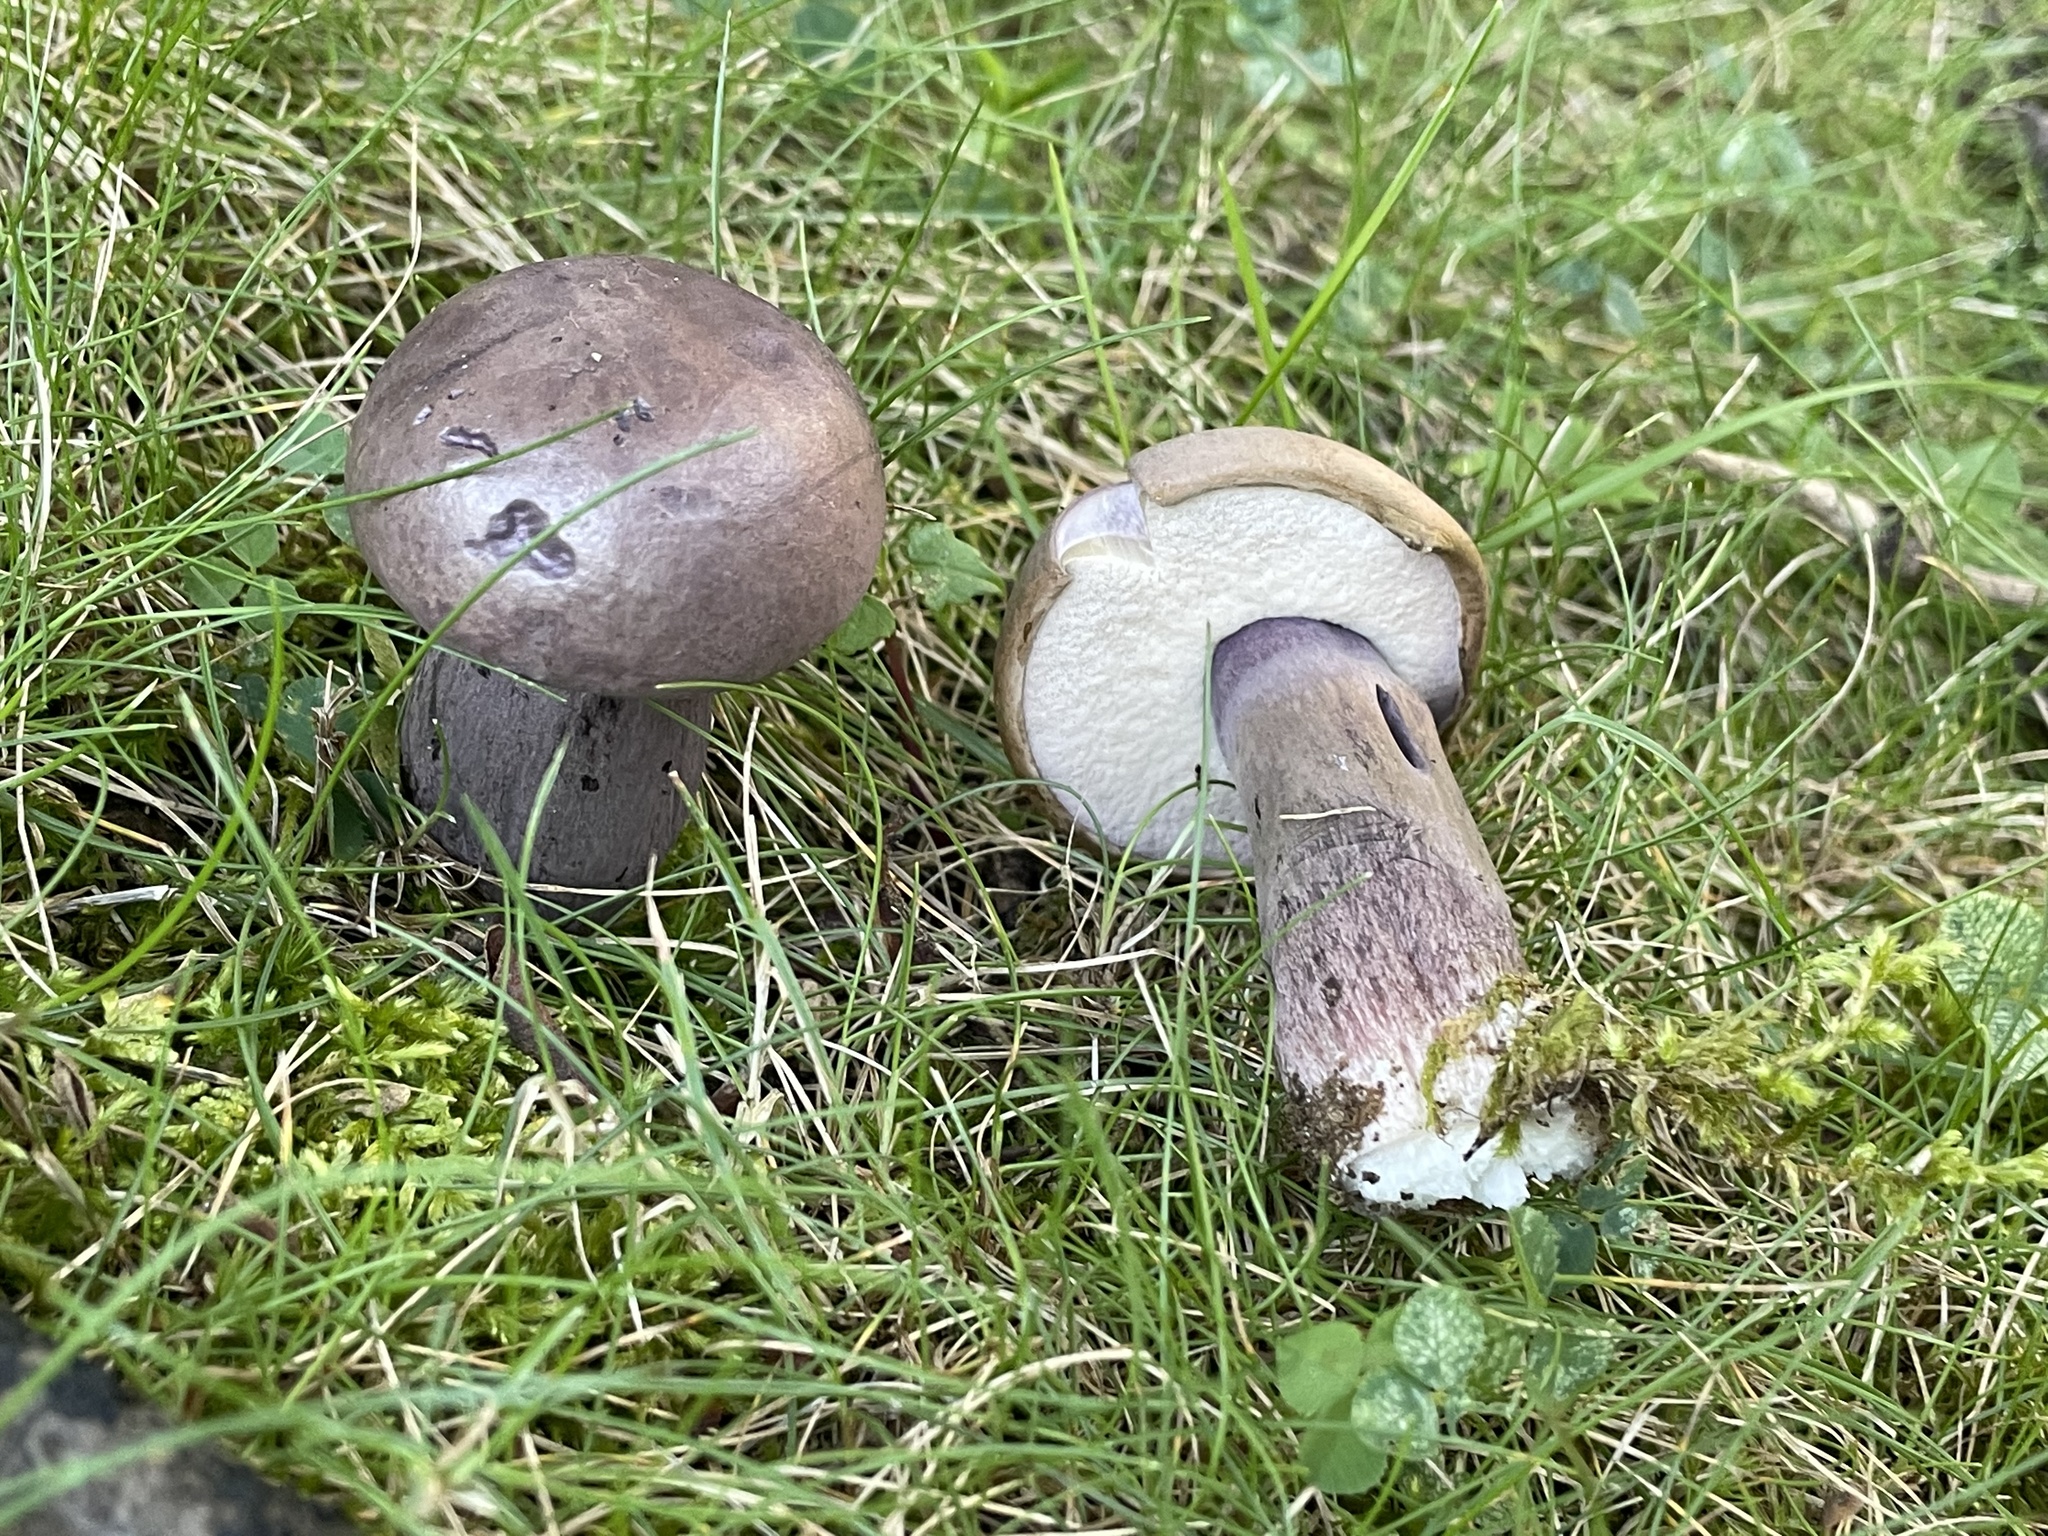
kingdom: Fungi
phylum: Basidiomycota
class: Agaricomycetes
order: Boletales
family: Boletaceae
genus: Tylopilus
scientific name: Tylopilus plumbeoviolaceus
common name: Violet gray bolete
